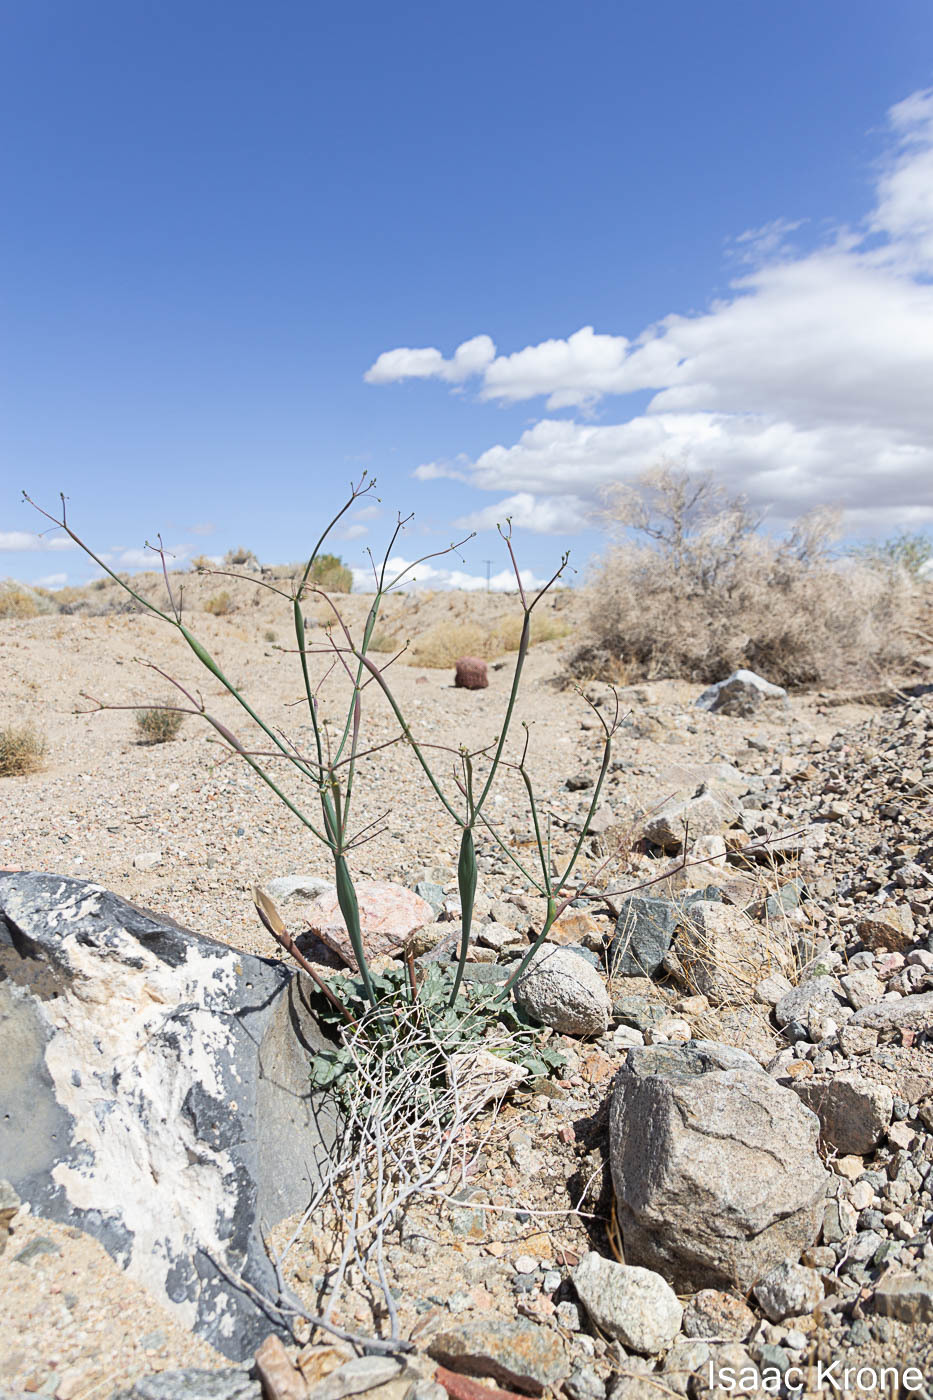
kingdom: Plantae
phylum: Tracheophyta
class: Magnoliopsida
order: Caryophyllales
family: Polygonaceae
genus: Eriogonum
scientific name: Eriogonum inflatum
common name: Desert trumpet
